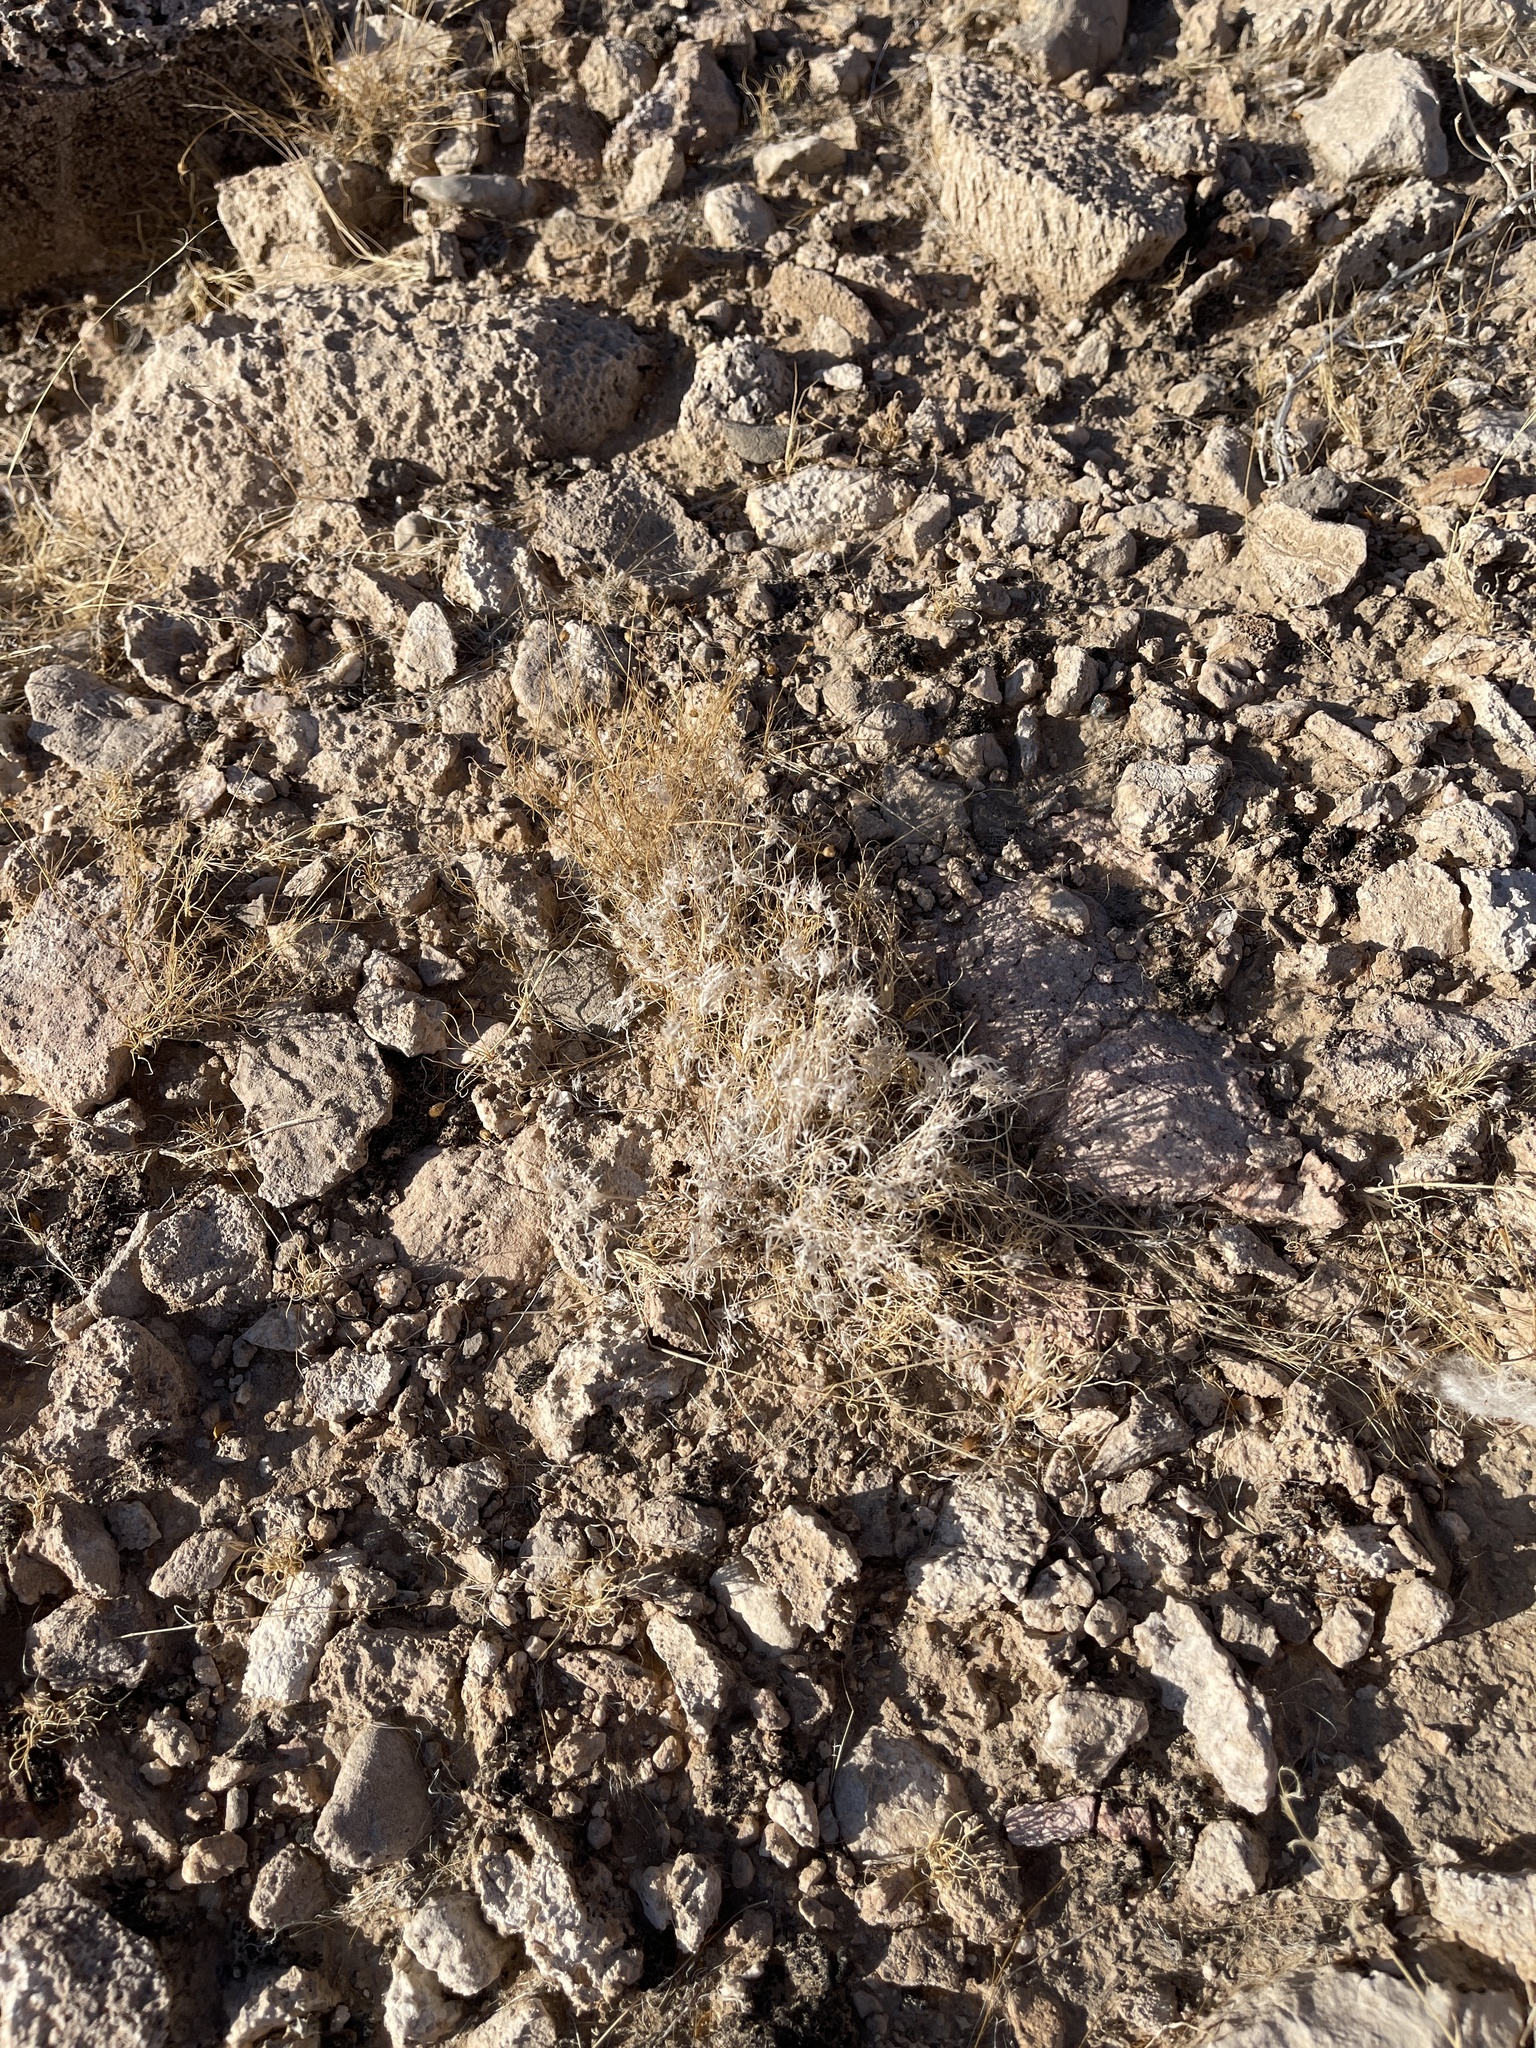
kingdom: Plantae
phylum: Tracheophyta
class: Liliopsida
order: Poales
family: Poaceae
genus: Dasyochloa
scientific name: Dasyochloa pulchella
